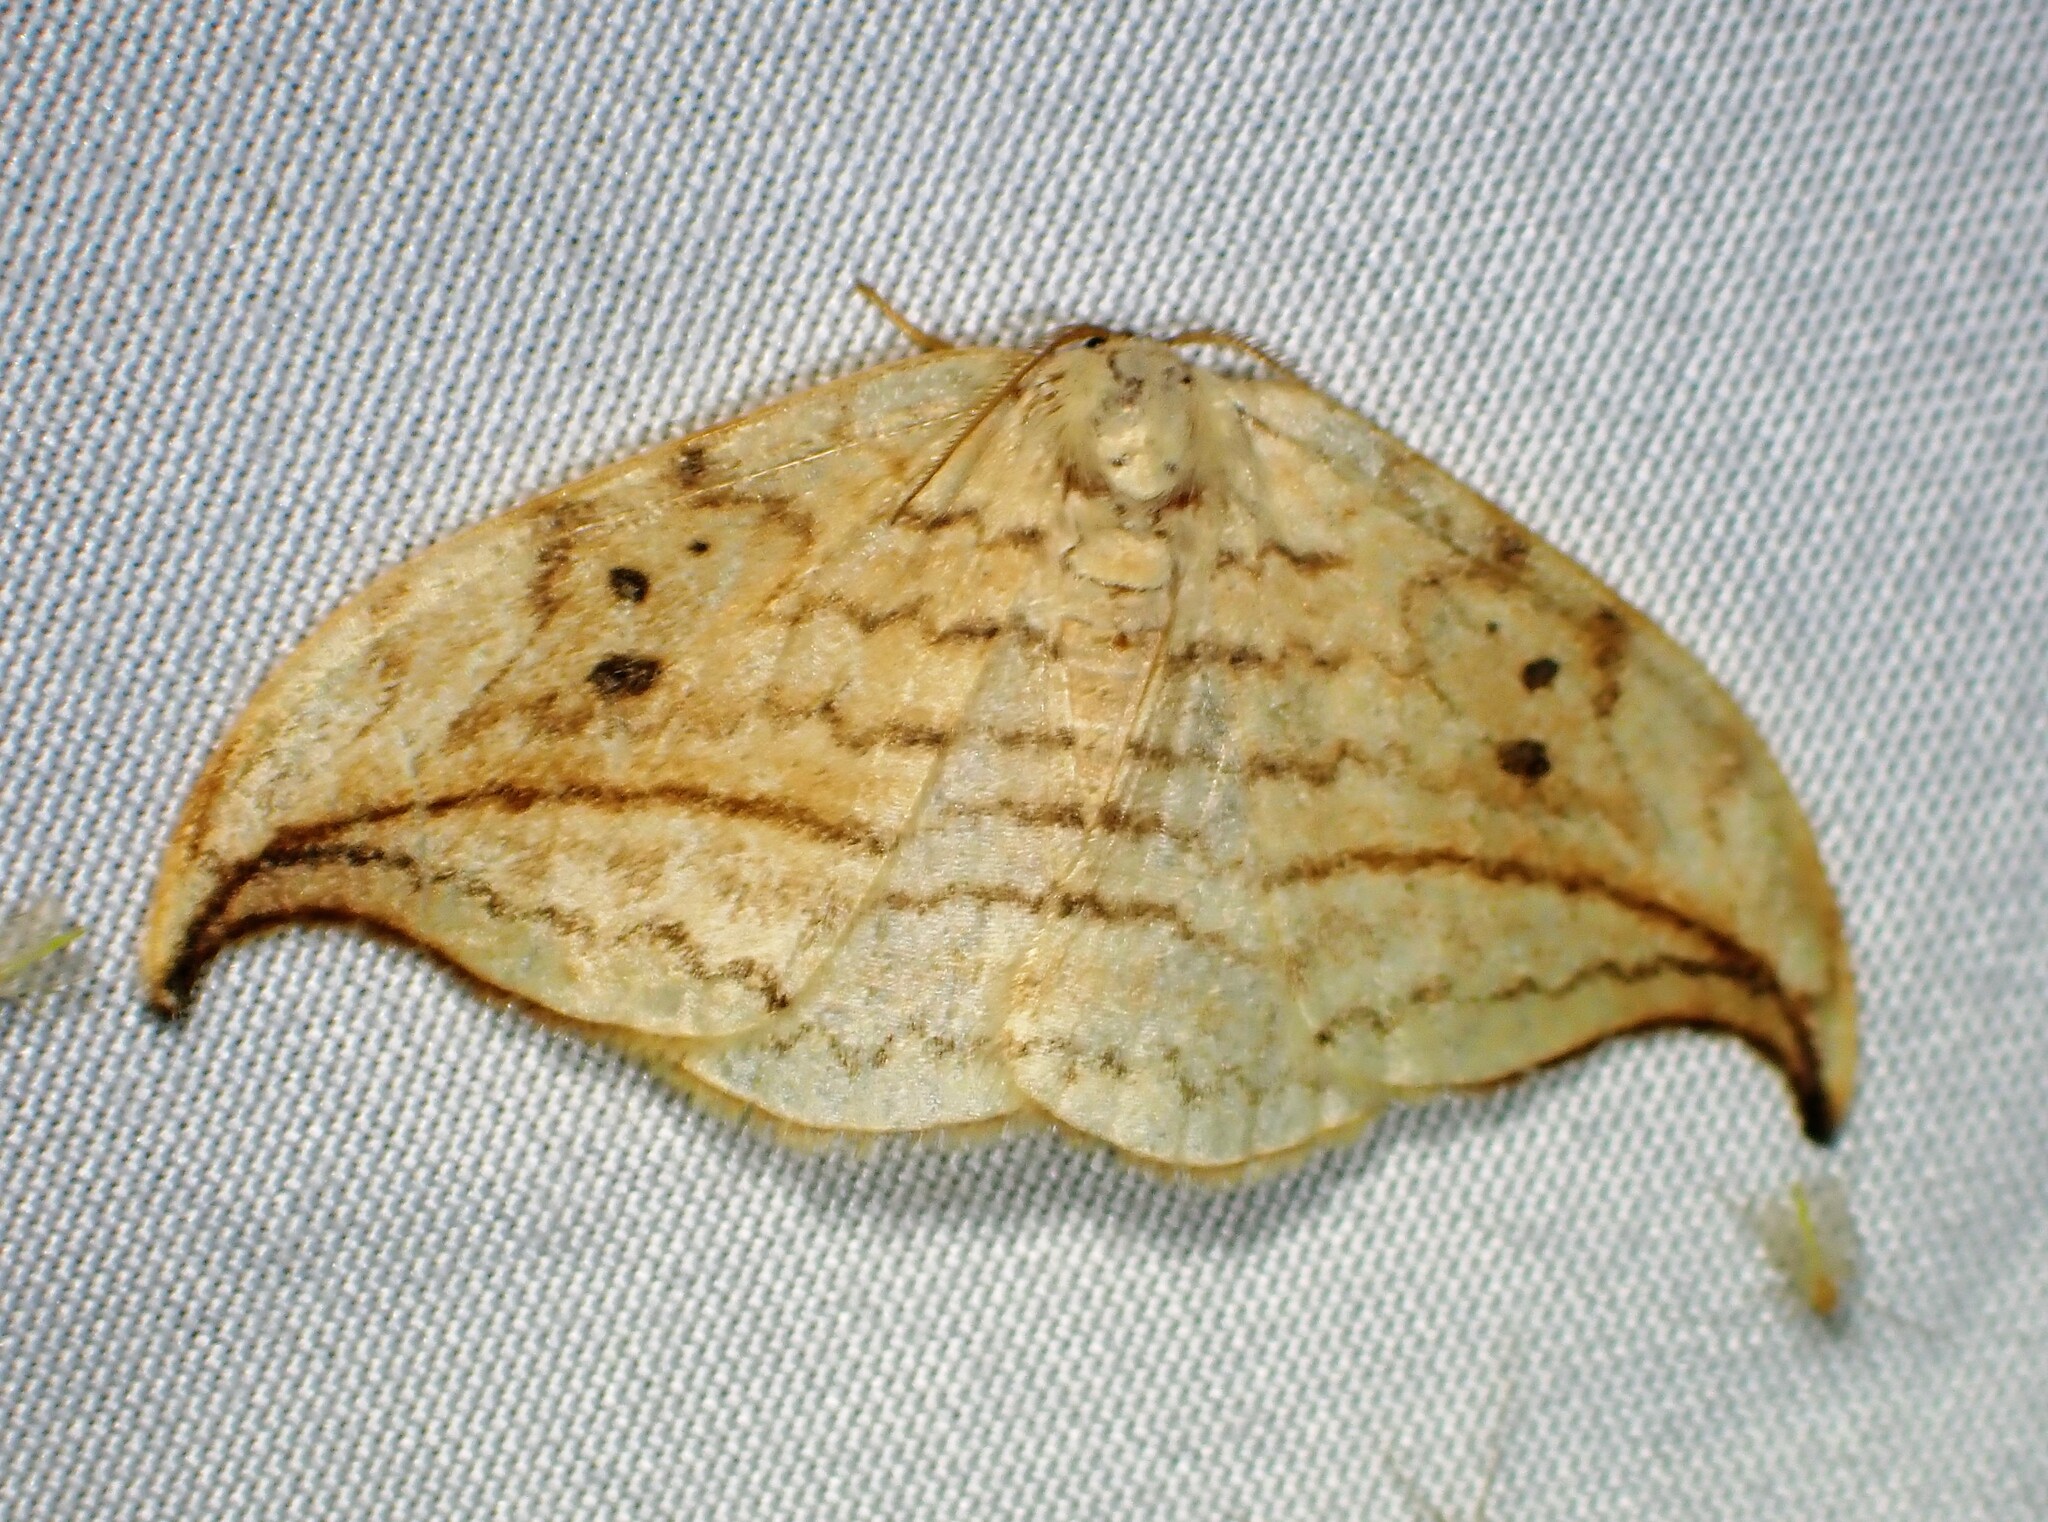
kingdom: Animalia
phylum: Arthropoda
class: Insecta
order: Lepidoptera
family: Drepanidae
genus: Drepana
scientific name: Drepana arcuata
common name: Arched hooktip moth
